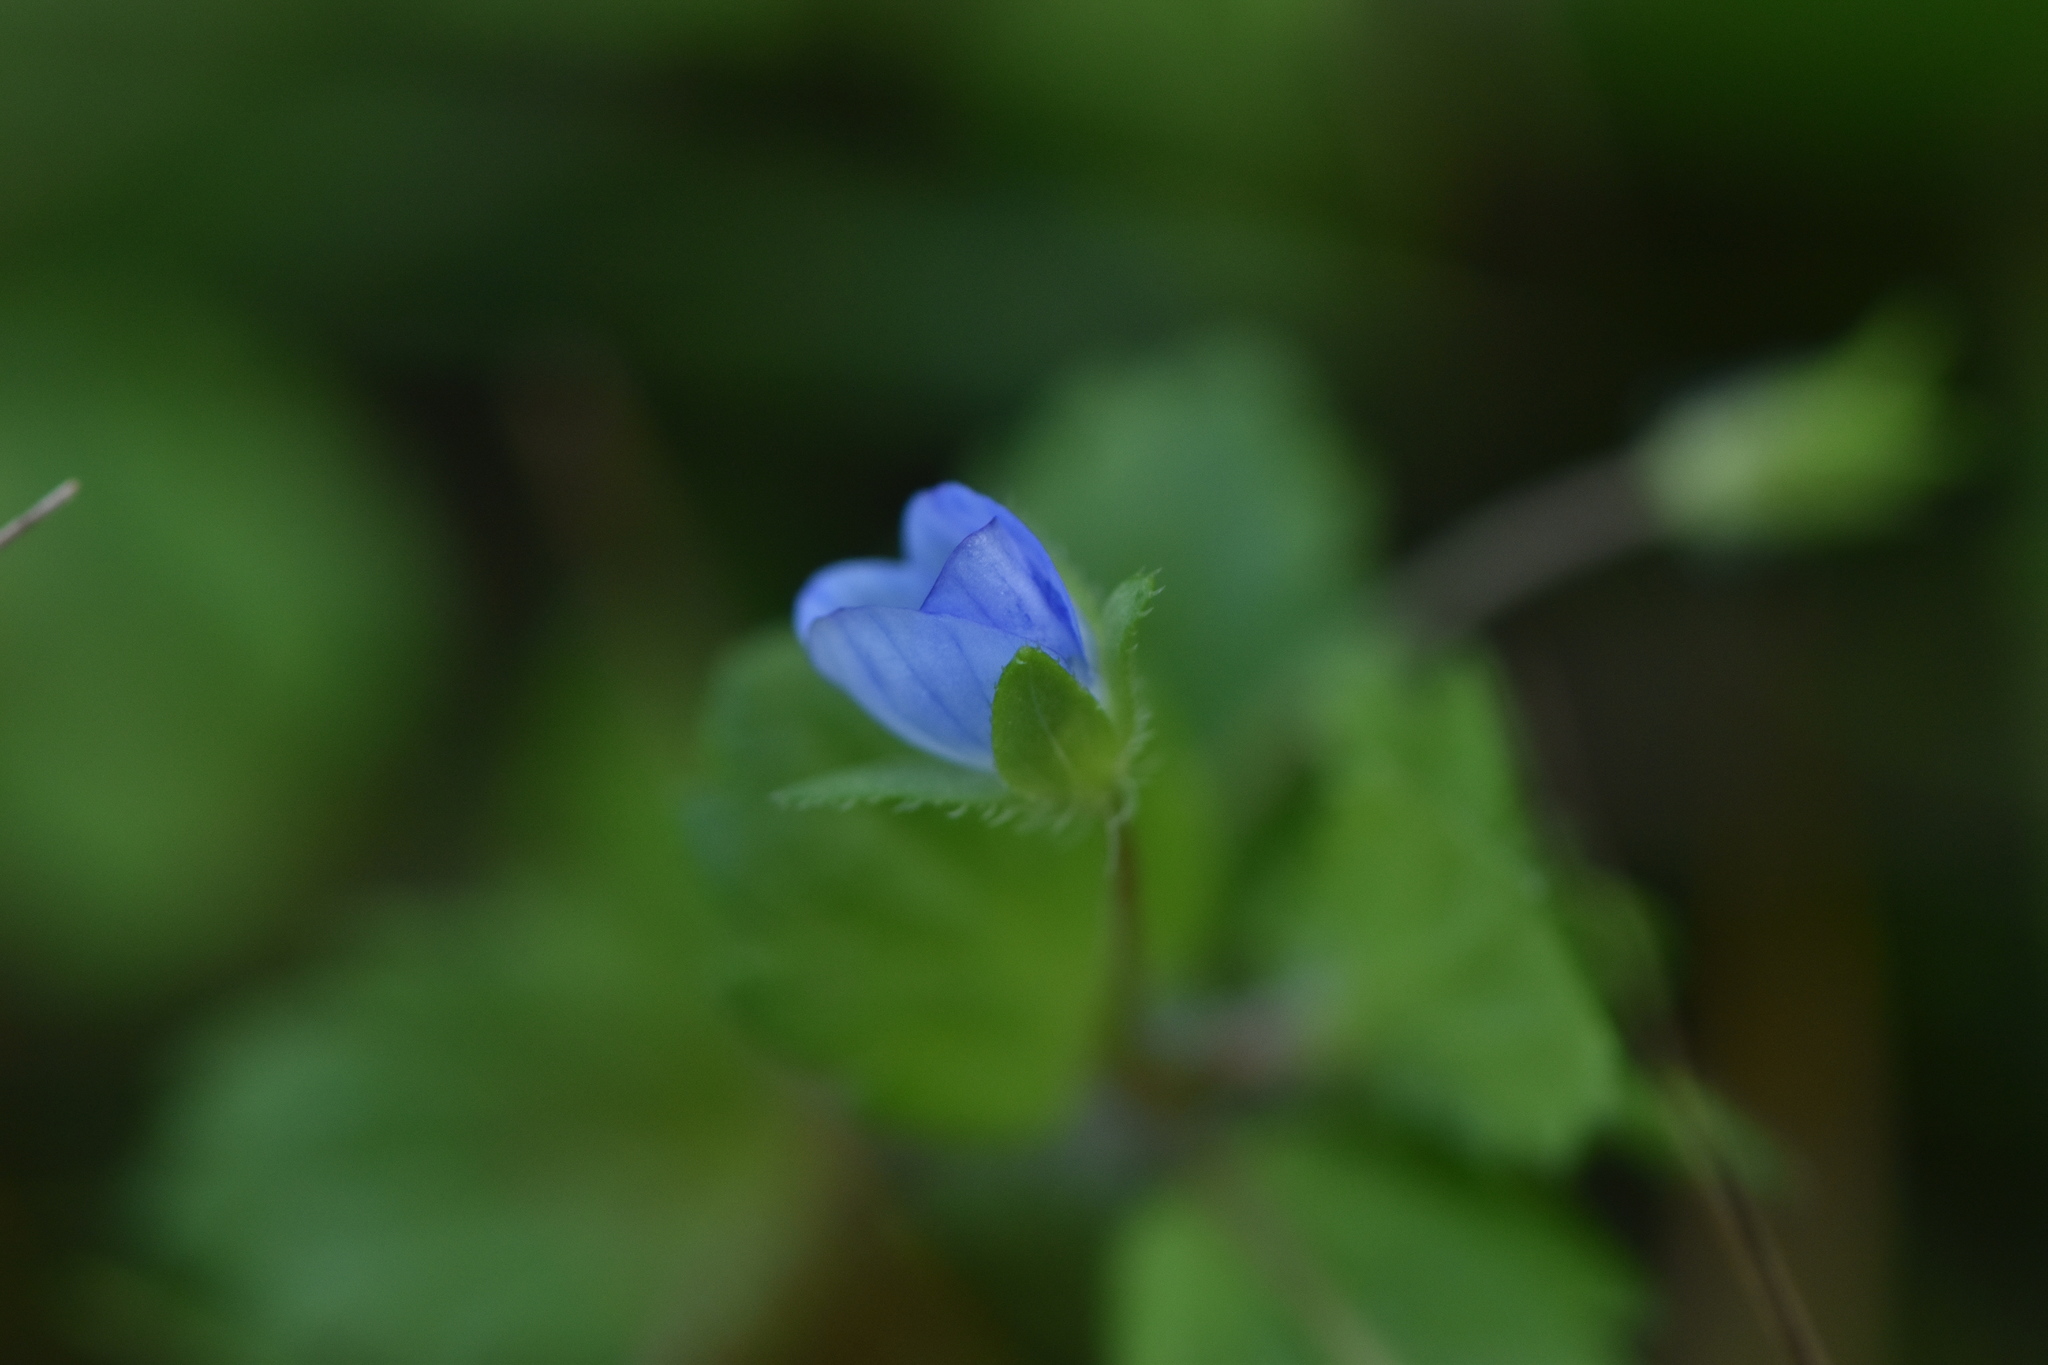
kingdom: Plantae
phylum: Tracheophyta
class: Magnoliopsida
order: Lamiales
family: Plantaginaceae
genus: Veronica
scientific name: Veronica persica
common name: Common field-speedwell
